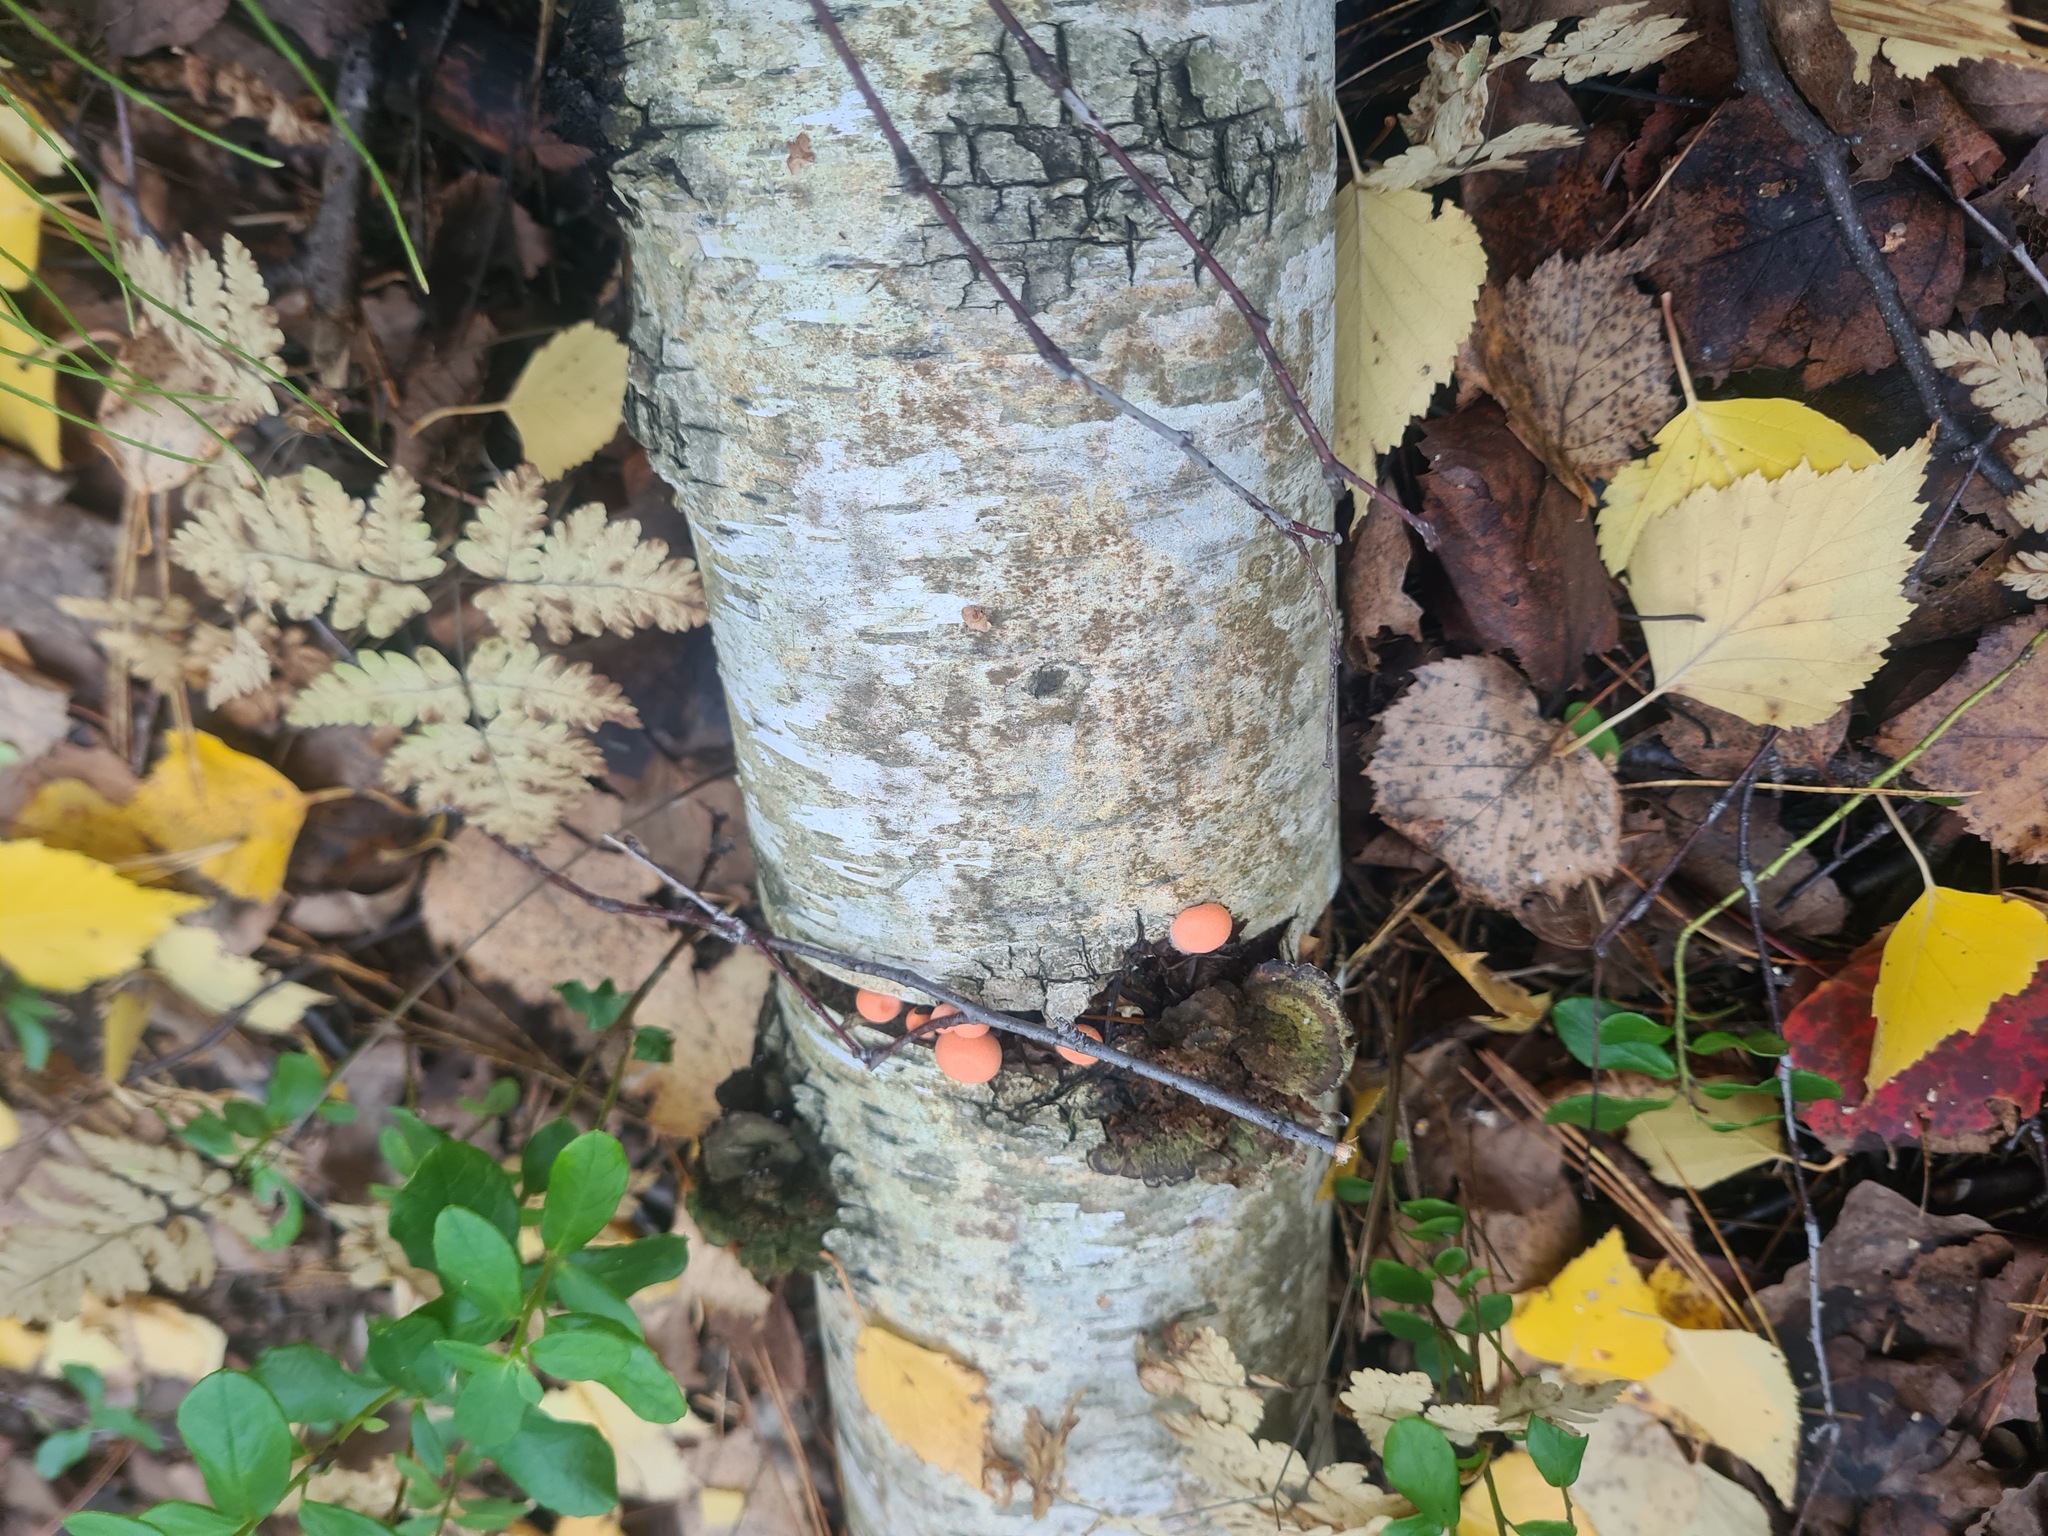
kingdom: Protozoa
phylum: Mycetozoa
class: Myxomycetes
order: Cribrariales
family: Tubiferaceae
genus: Lycogala
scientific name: Lycogala epidendrum
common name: Wolf's milk
